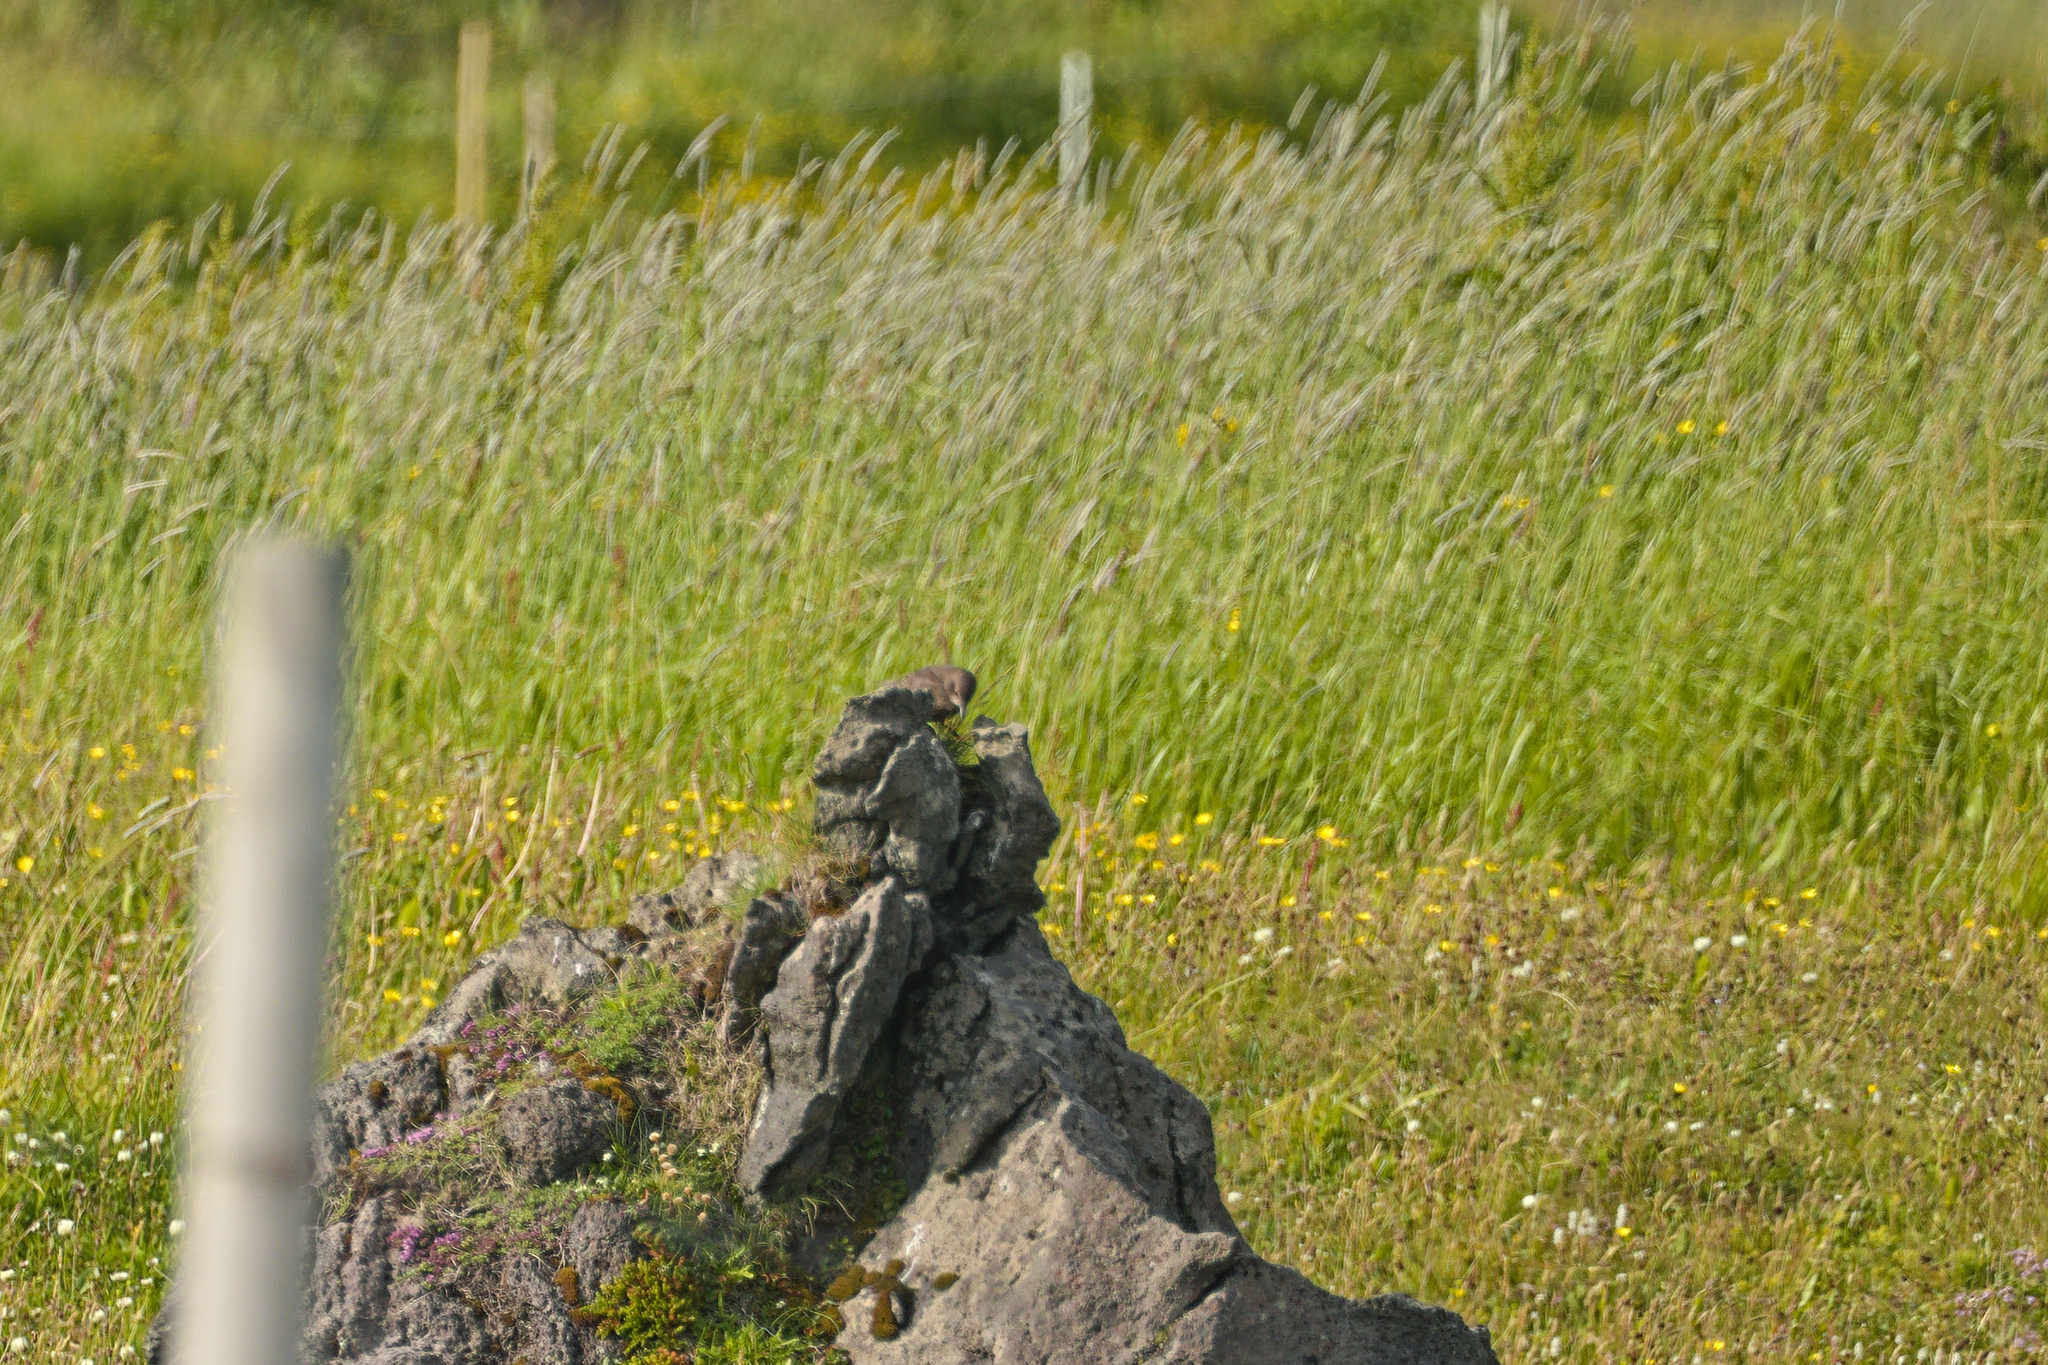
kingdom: Animalia
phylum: Chordata
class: Aves
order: Passeriformes
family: Sturnidae
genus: Sturnus
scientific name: Sturnus vulgaris
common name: Common starling
